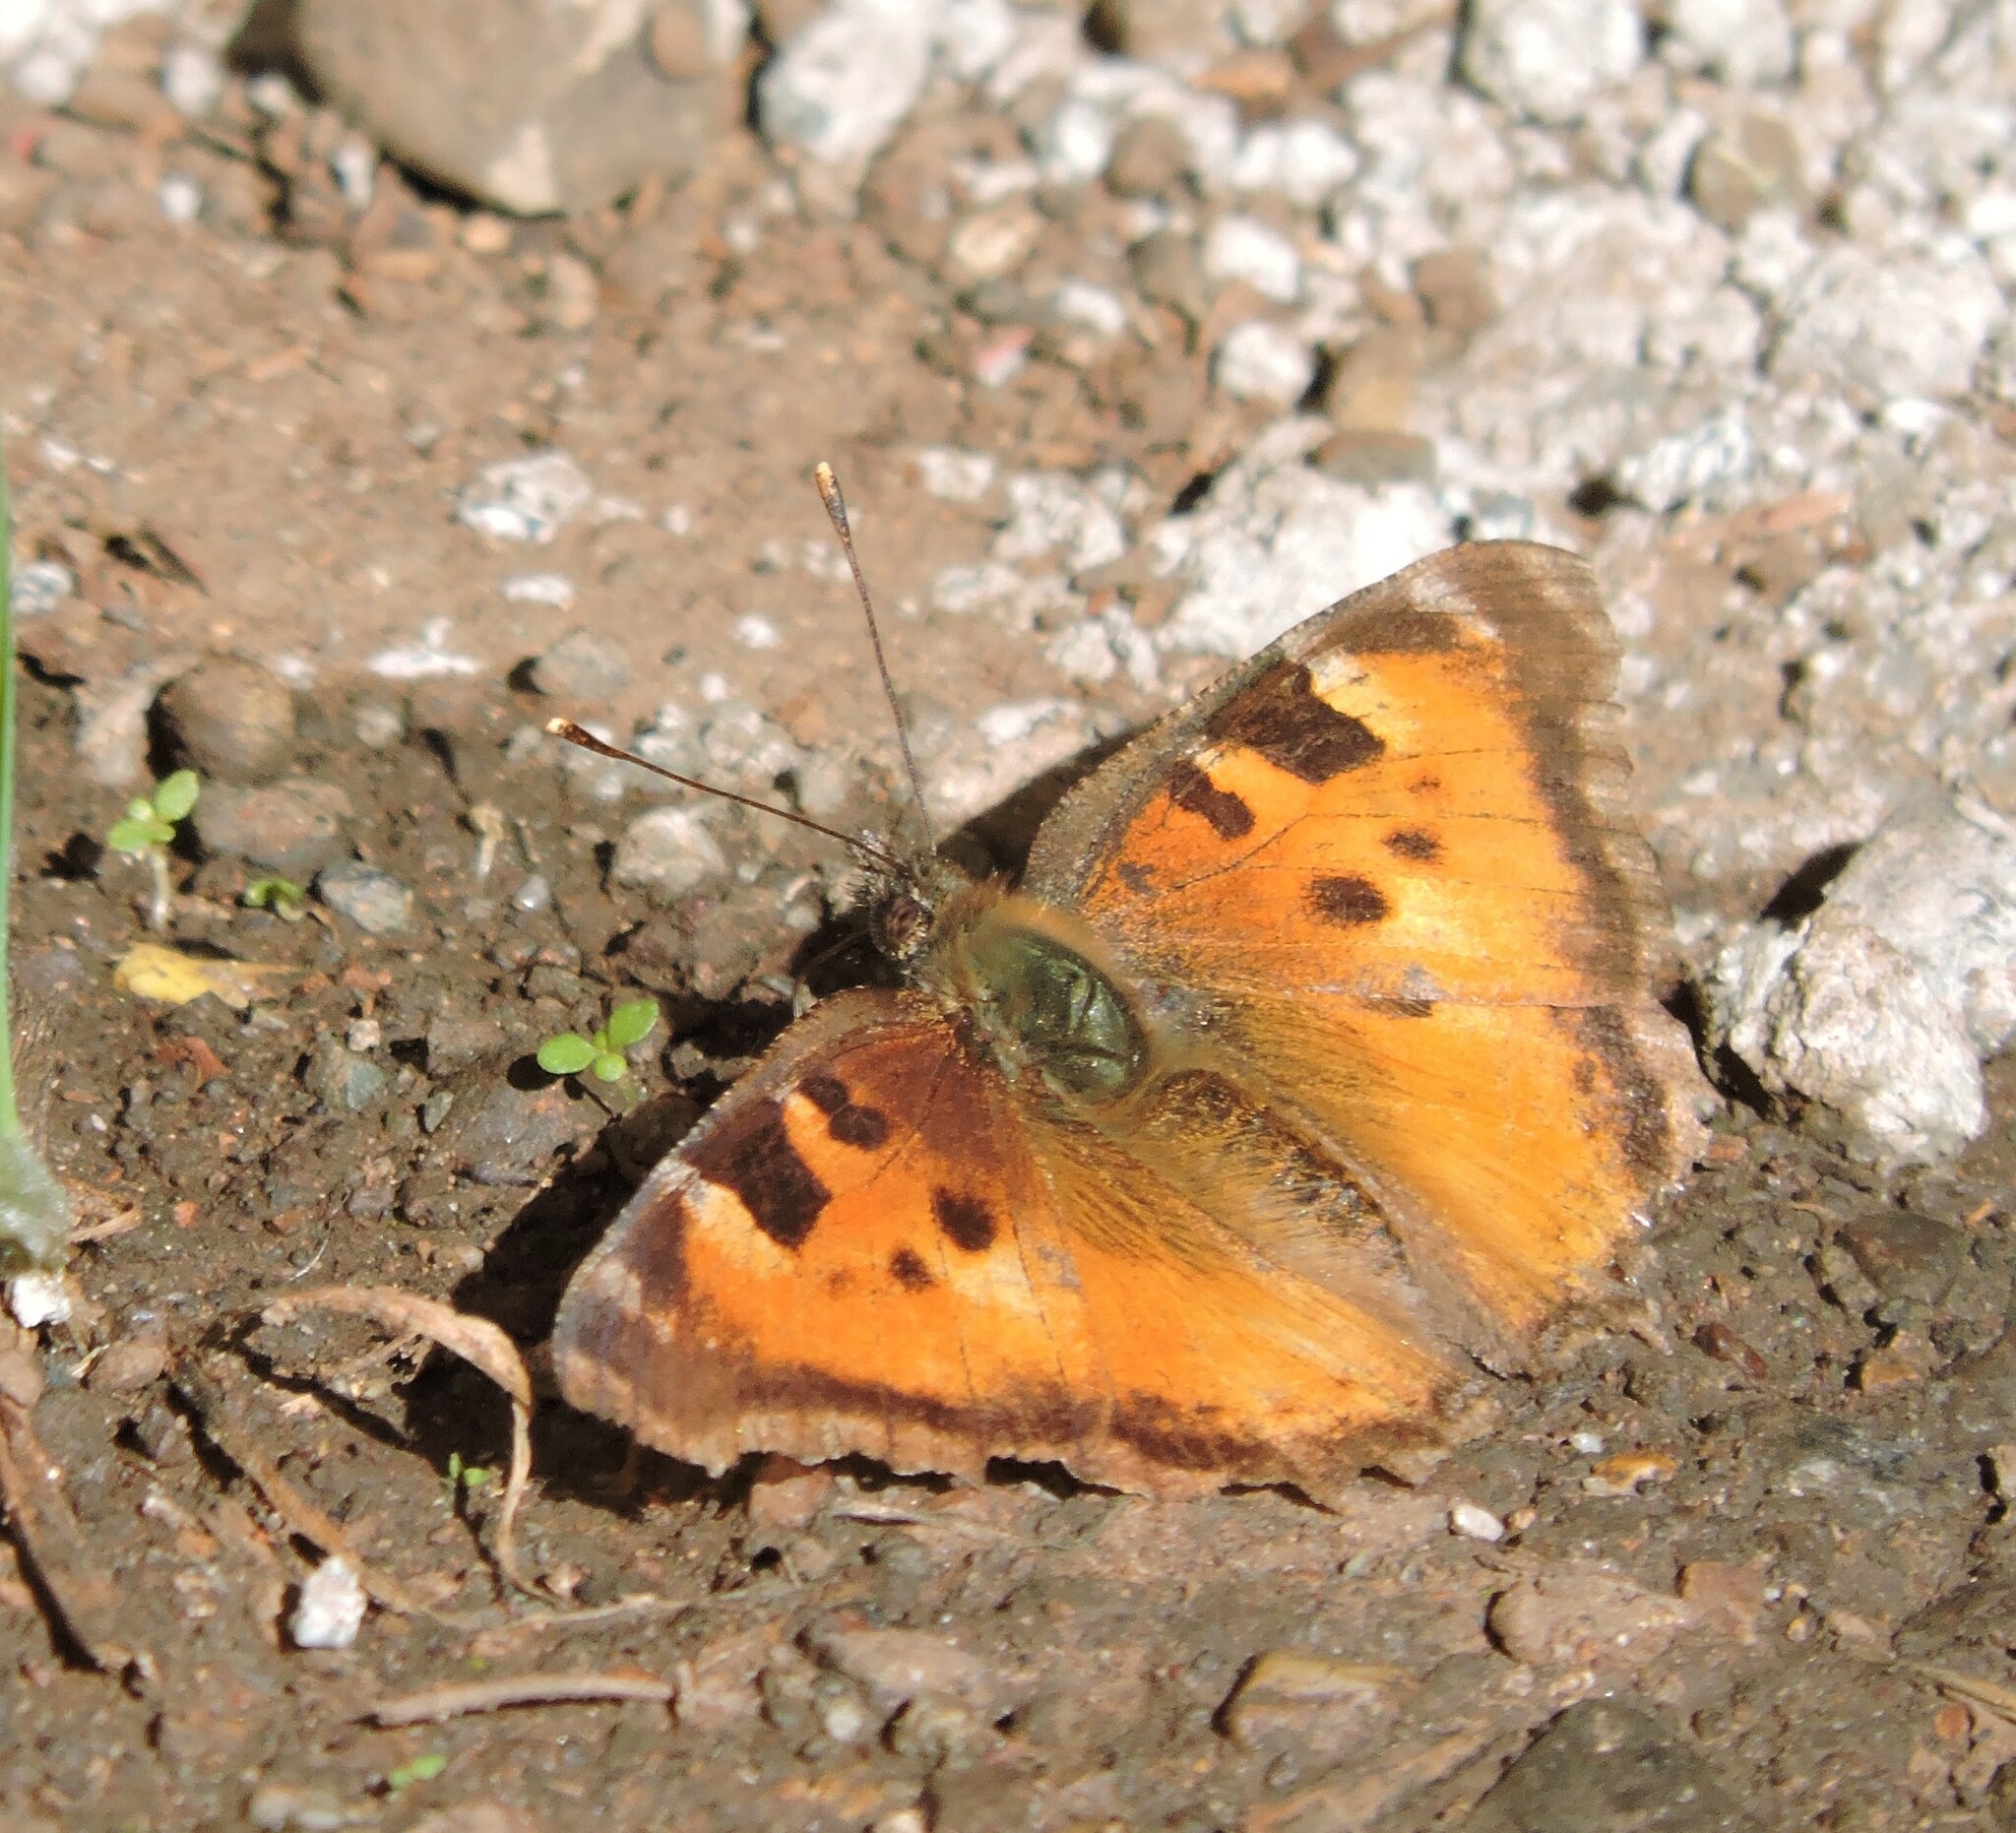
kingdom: Animalia
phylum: Arthropoda
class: Insecta
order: Lepidoptera
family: Nymphalidae
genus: Nymphalis
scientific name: Nymphalis californica
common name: California tortoiseshell
